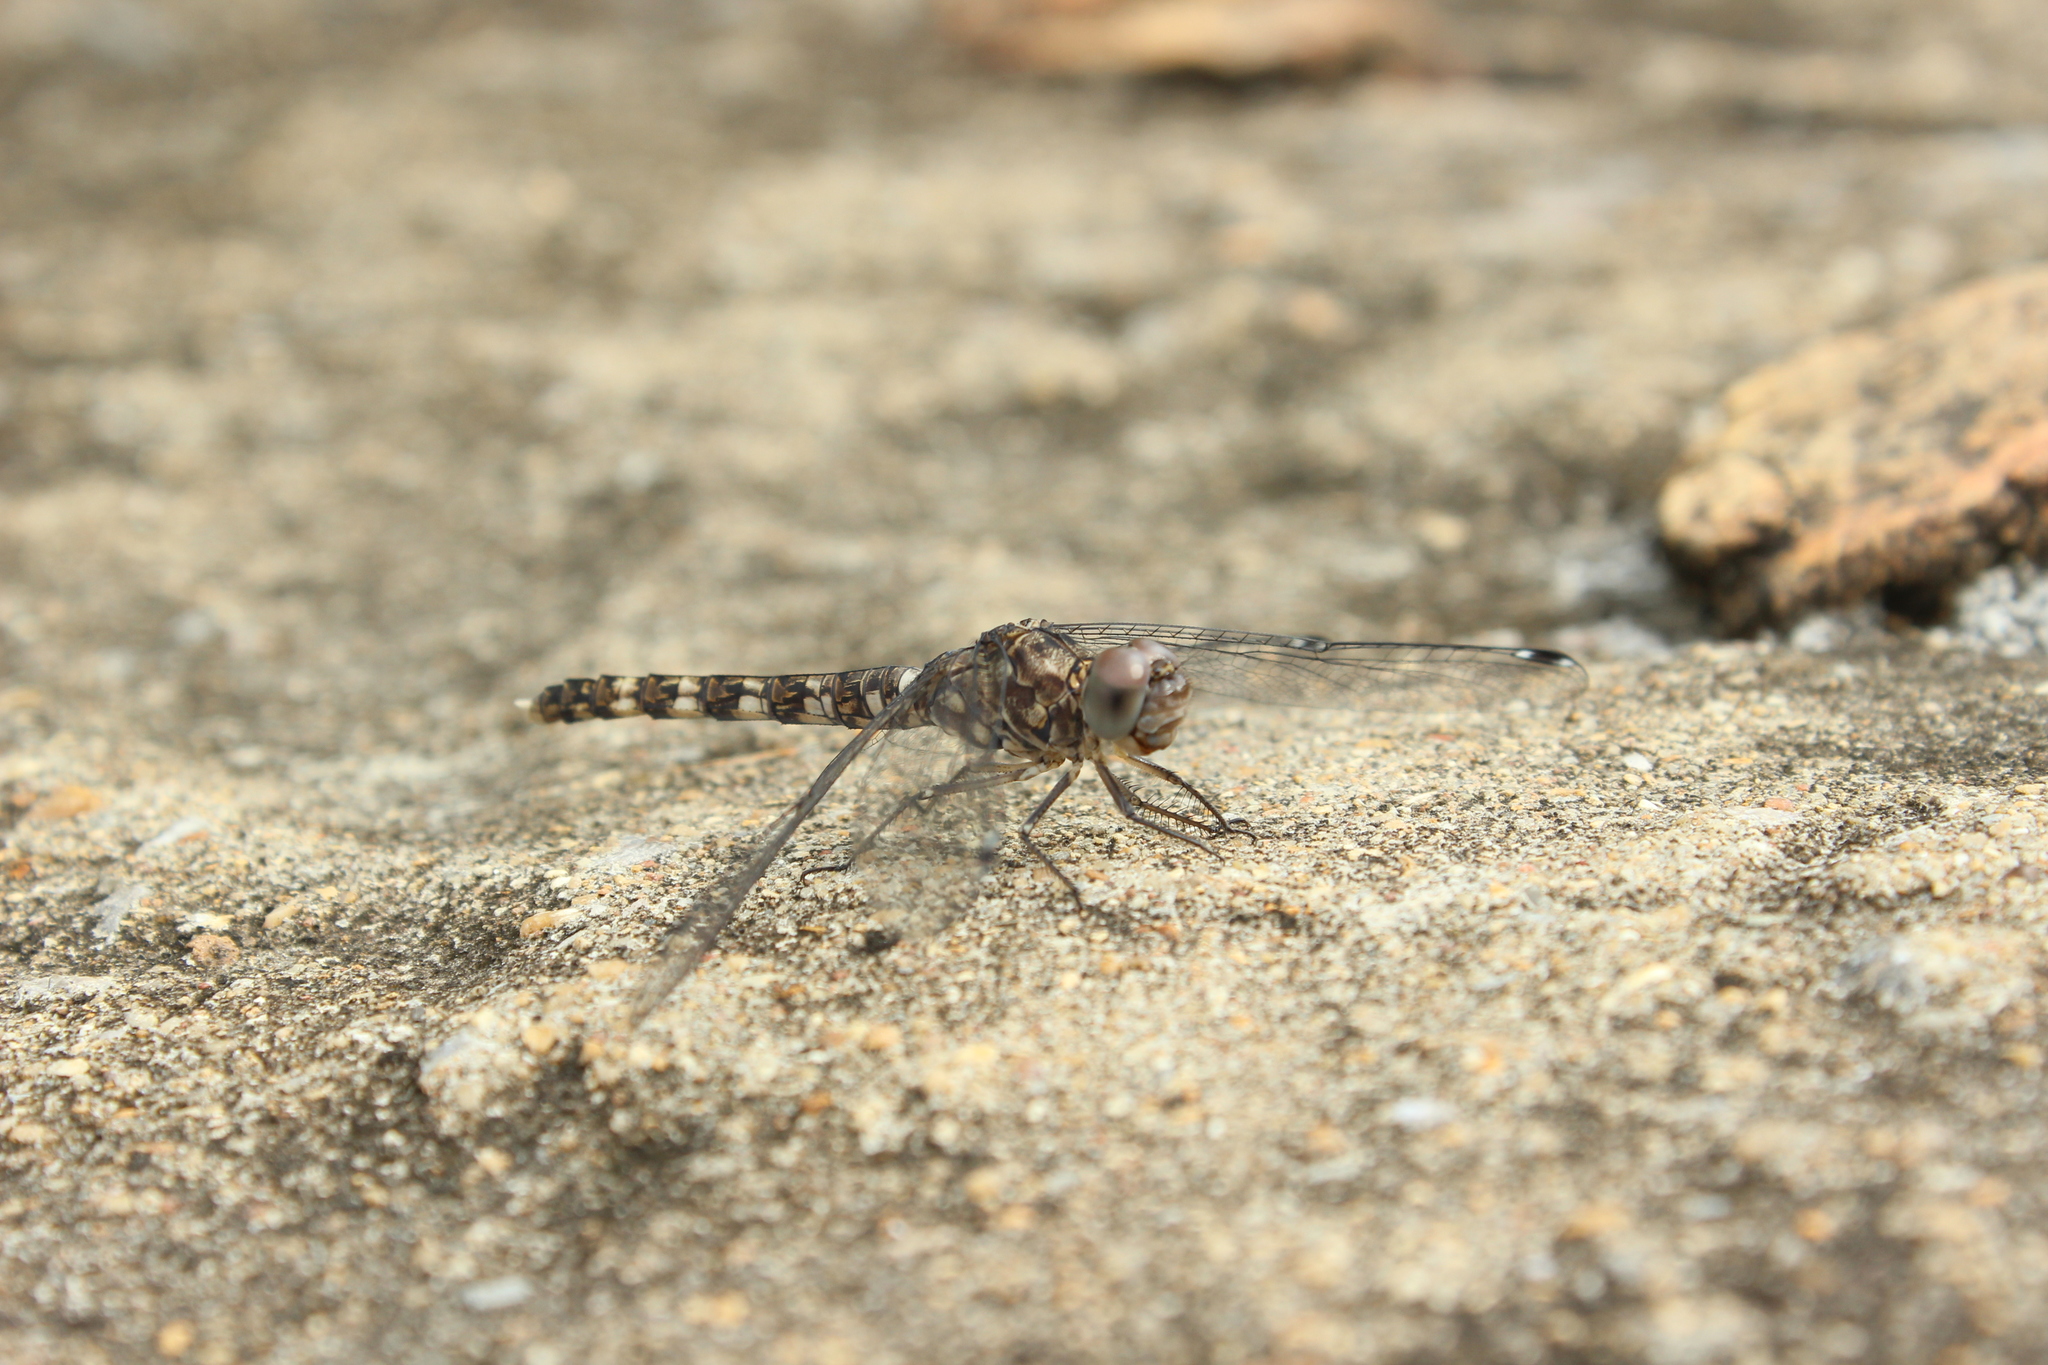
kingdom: Animalia
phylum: Arthropoda
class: Insecta
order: Odonata
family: Libellulidae
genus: Bradinopyga
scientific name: Bradinopyga geminata
